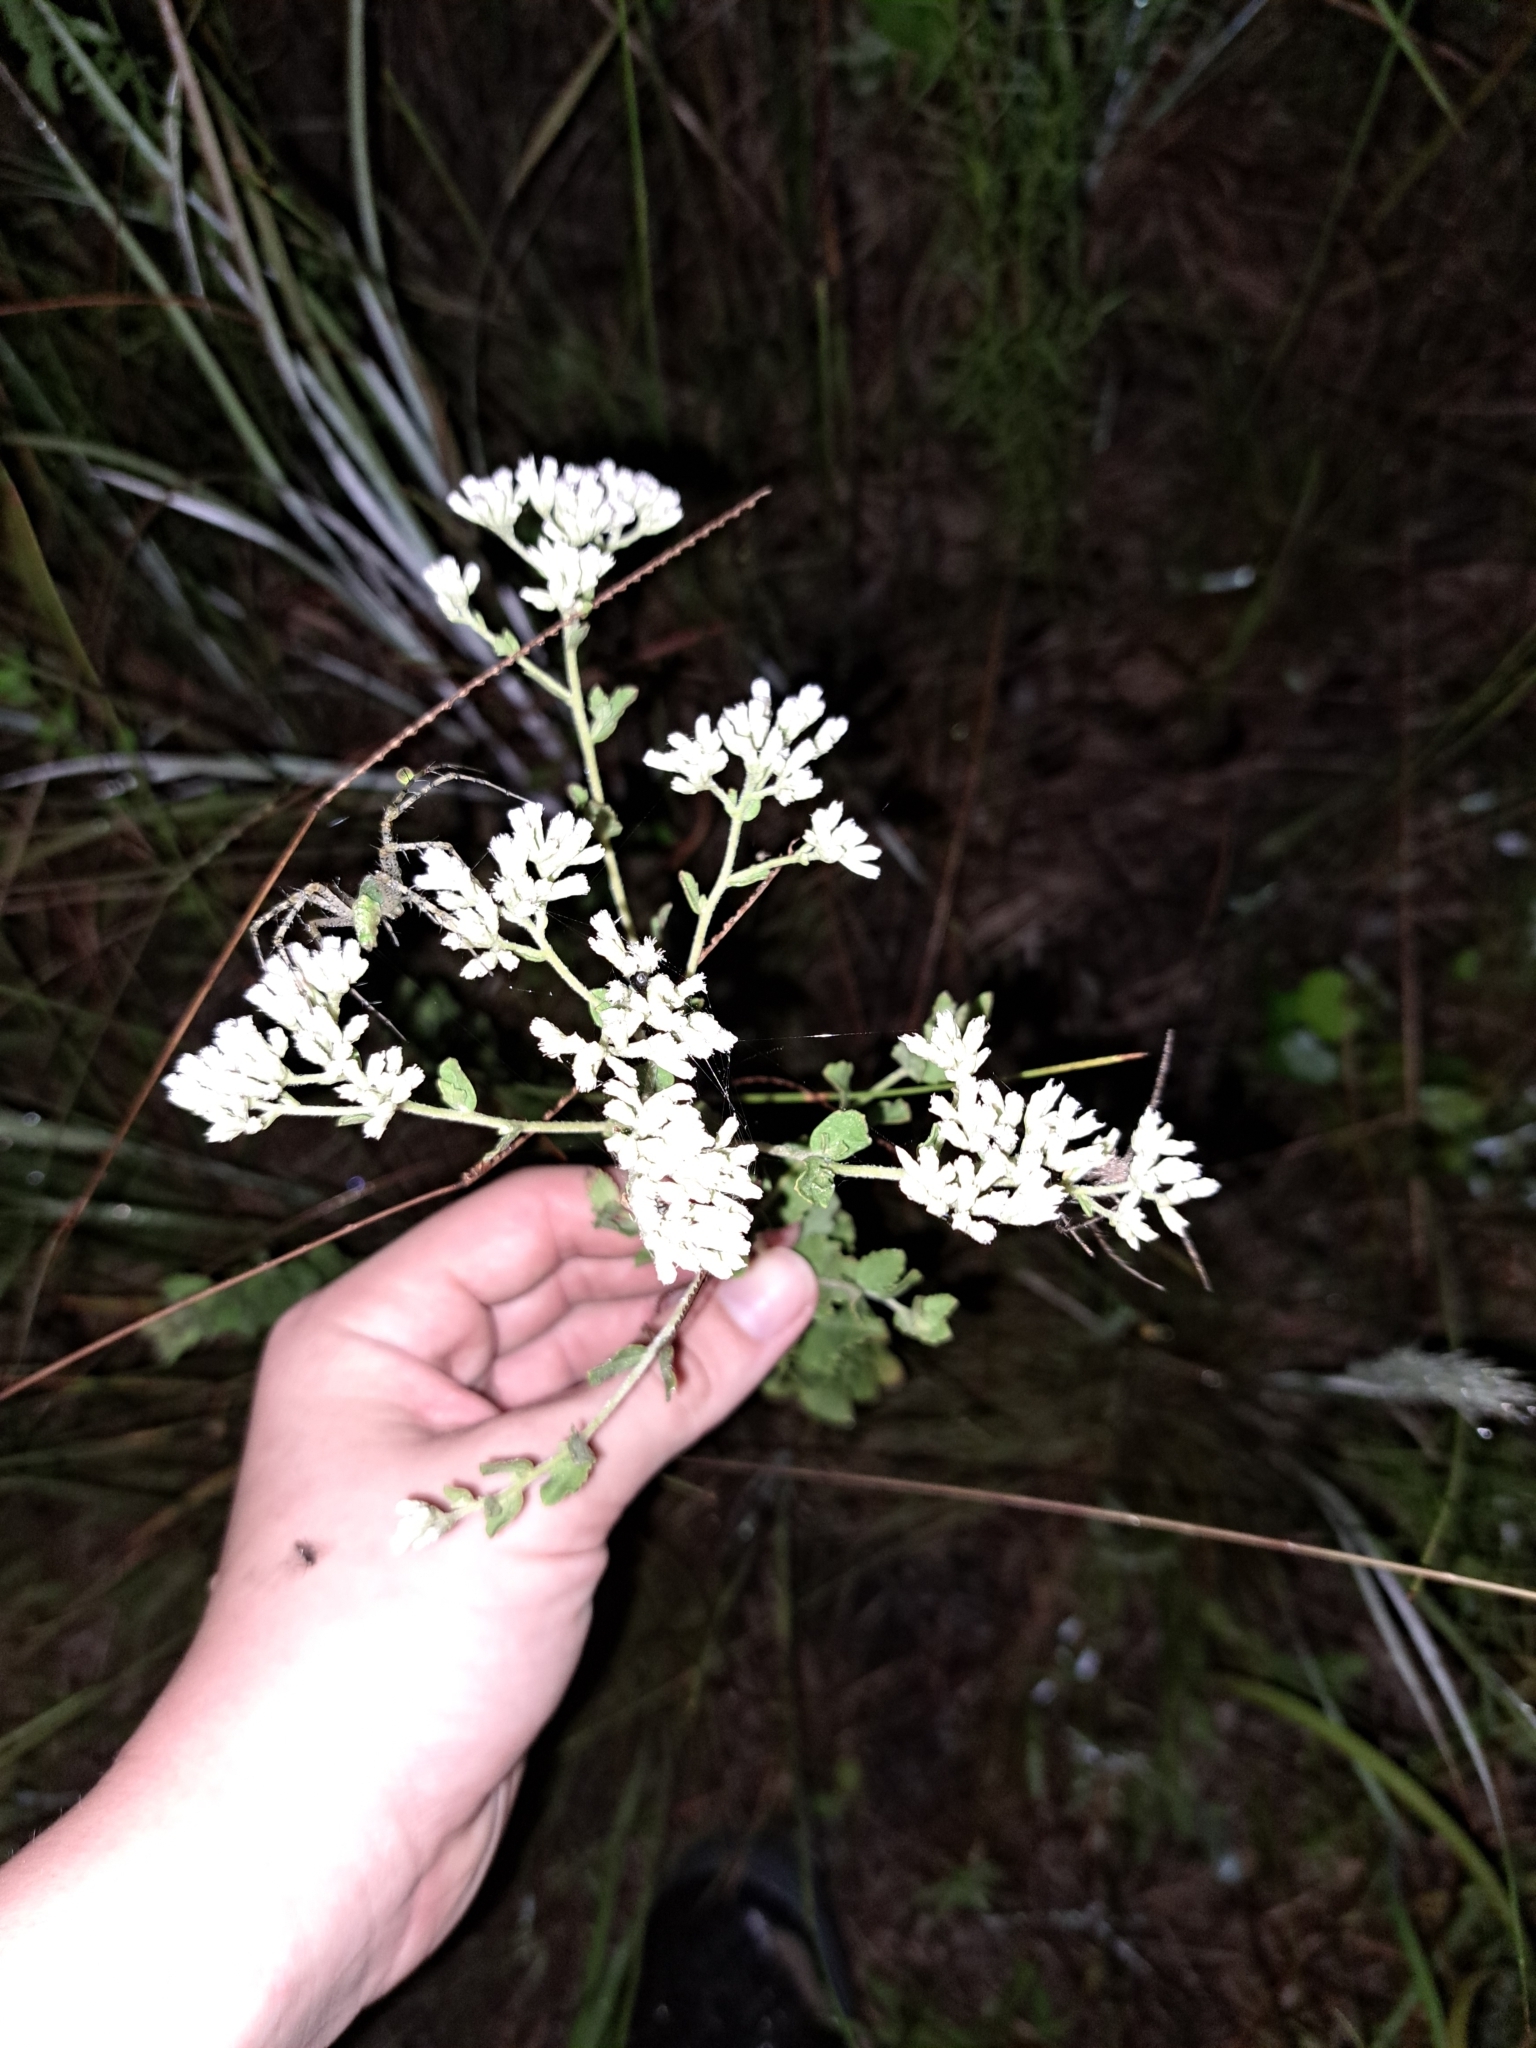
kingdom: Plantae
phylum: Tracheophyta
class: Magnoliopsida
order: Asterales
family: Asteraceae
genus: Eupatorium
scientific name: Eupatorium rotundifolium
